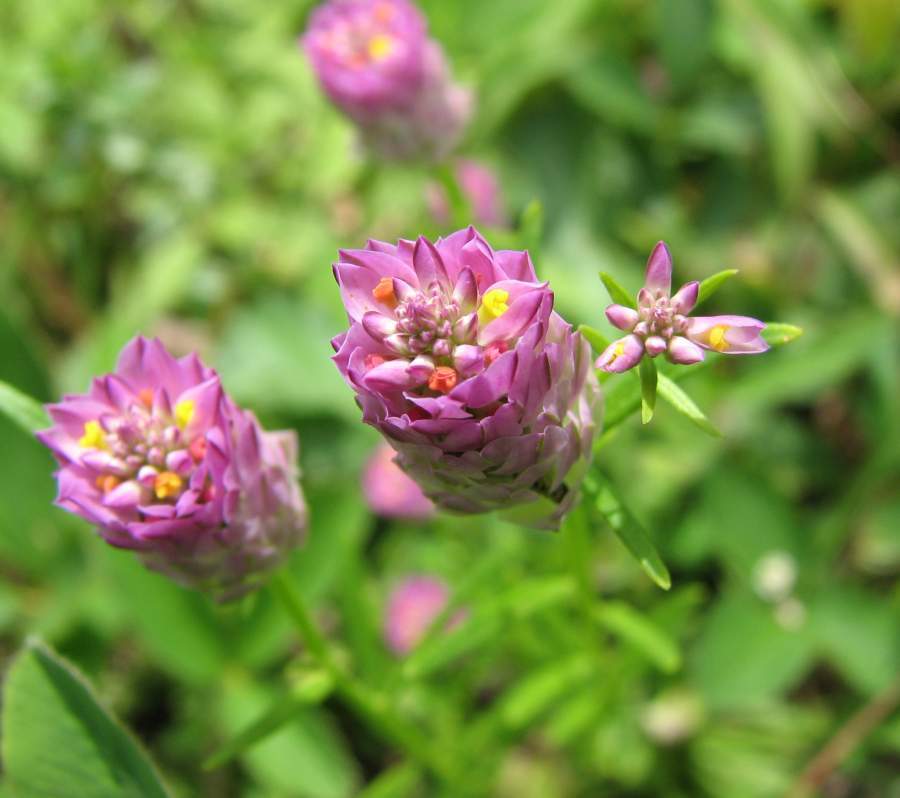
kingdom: Plantae
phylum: Tracheophyta
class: Magnoliopsida
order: Fabales
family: Polygalaceae
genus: Polygala
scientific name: Polygala sanguinea
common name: Blood milkwort
